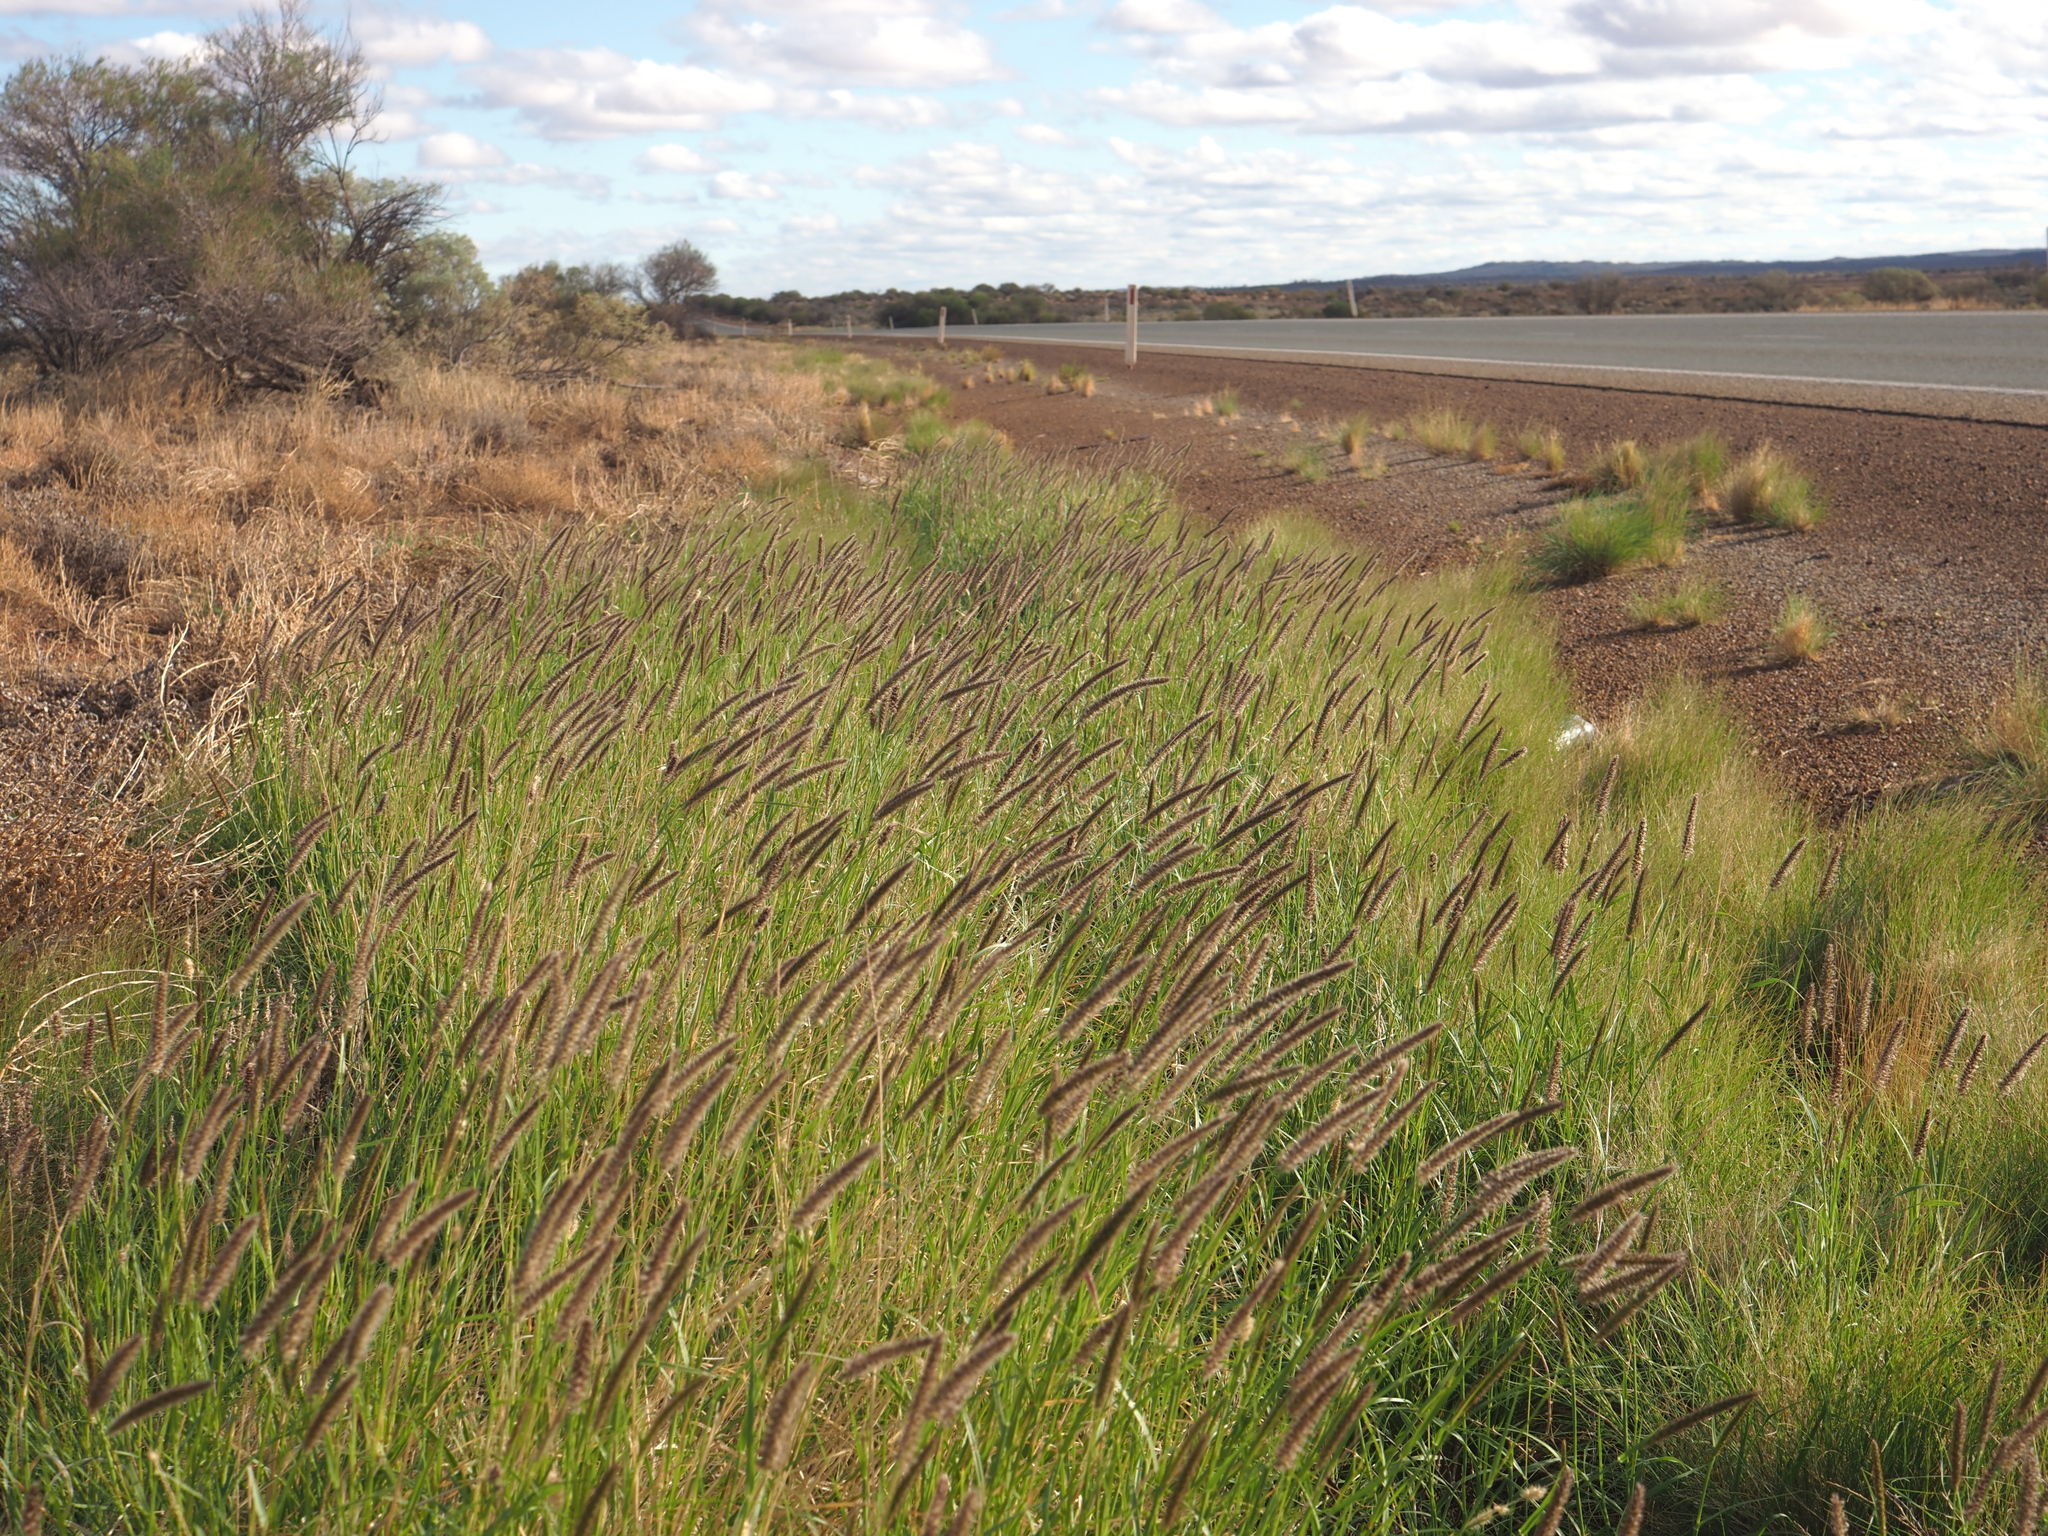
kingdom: Plantae
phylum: Tracheophyta
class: Liliopsida
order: Poales
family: Poaceae
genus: Cenchrus
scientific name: Cenchrus ciliaris
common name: Buffelgrass
